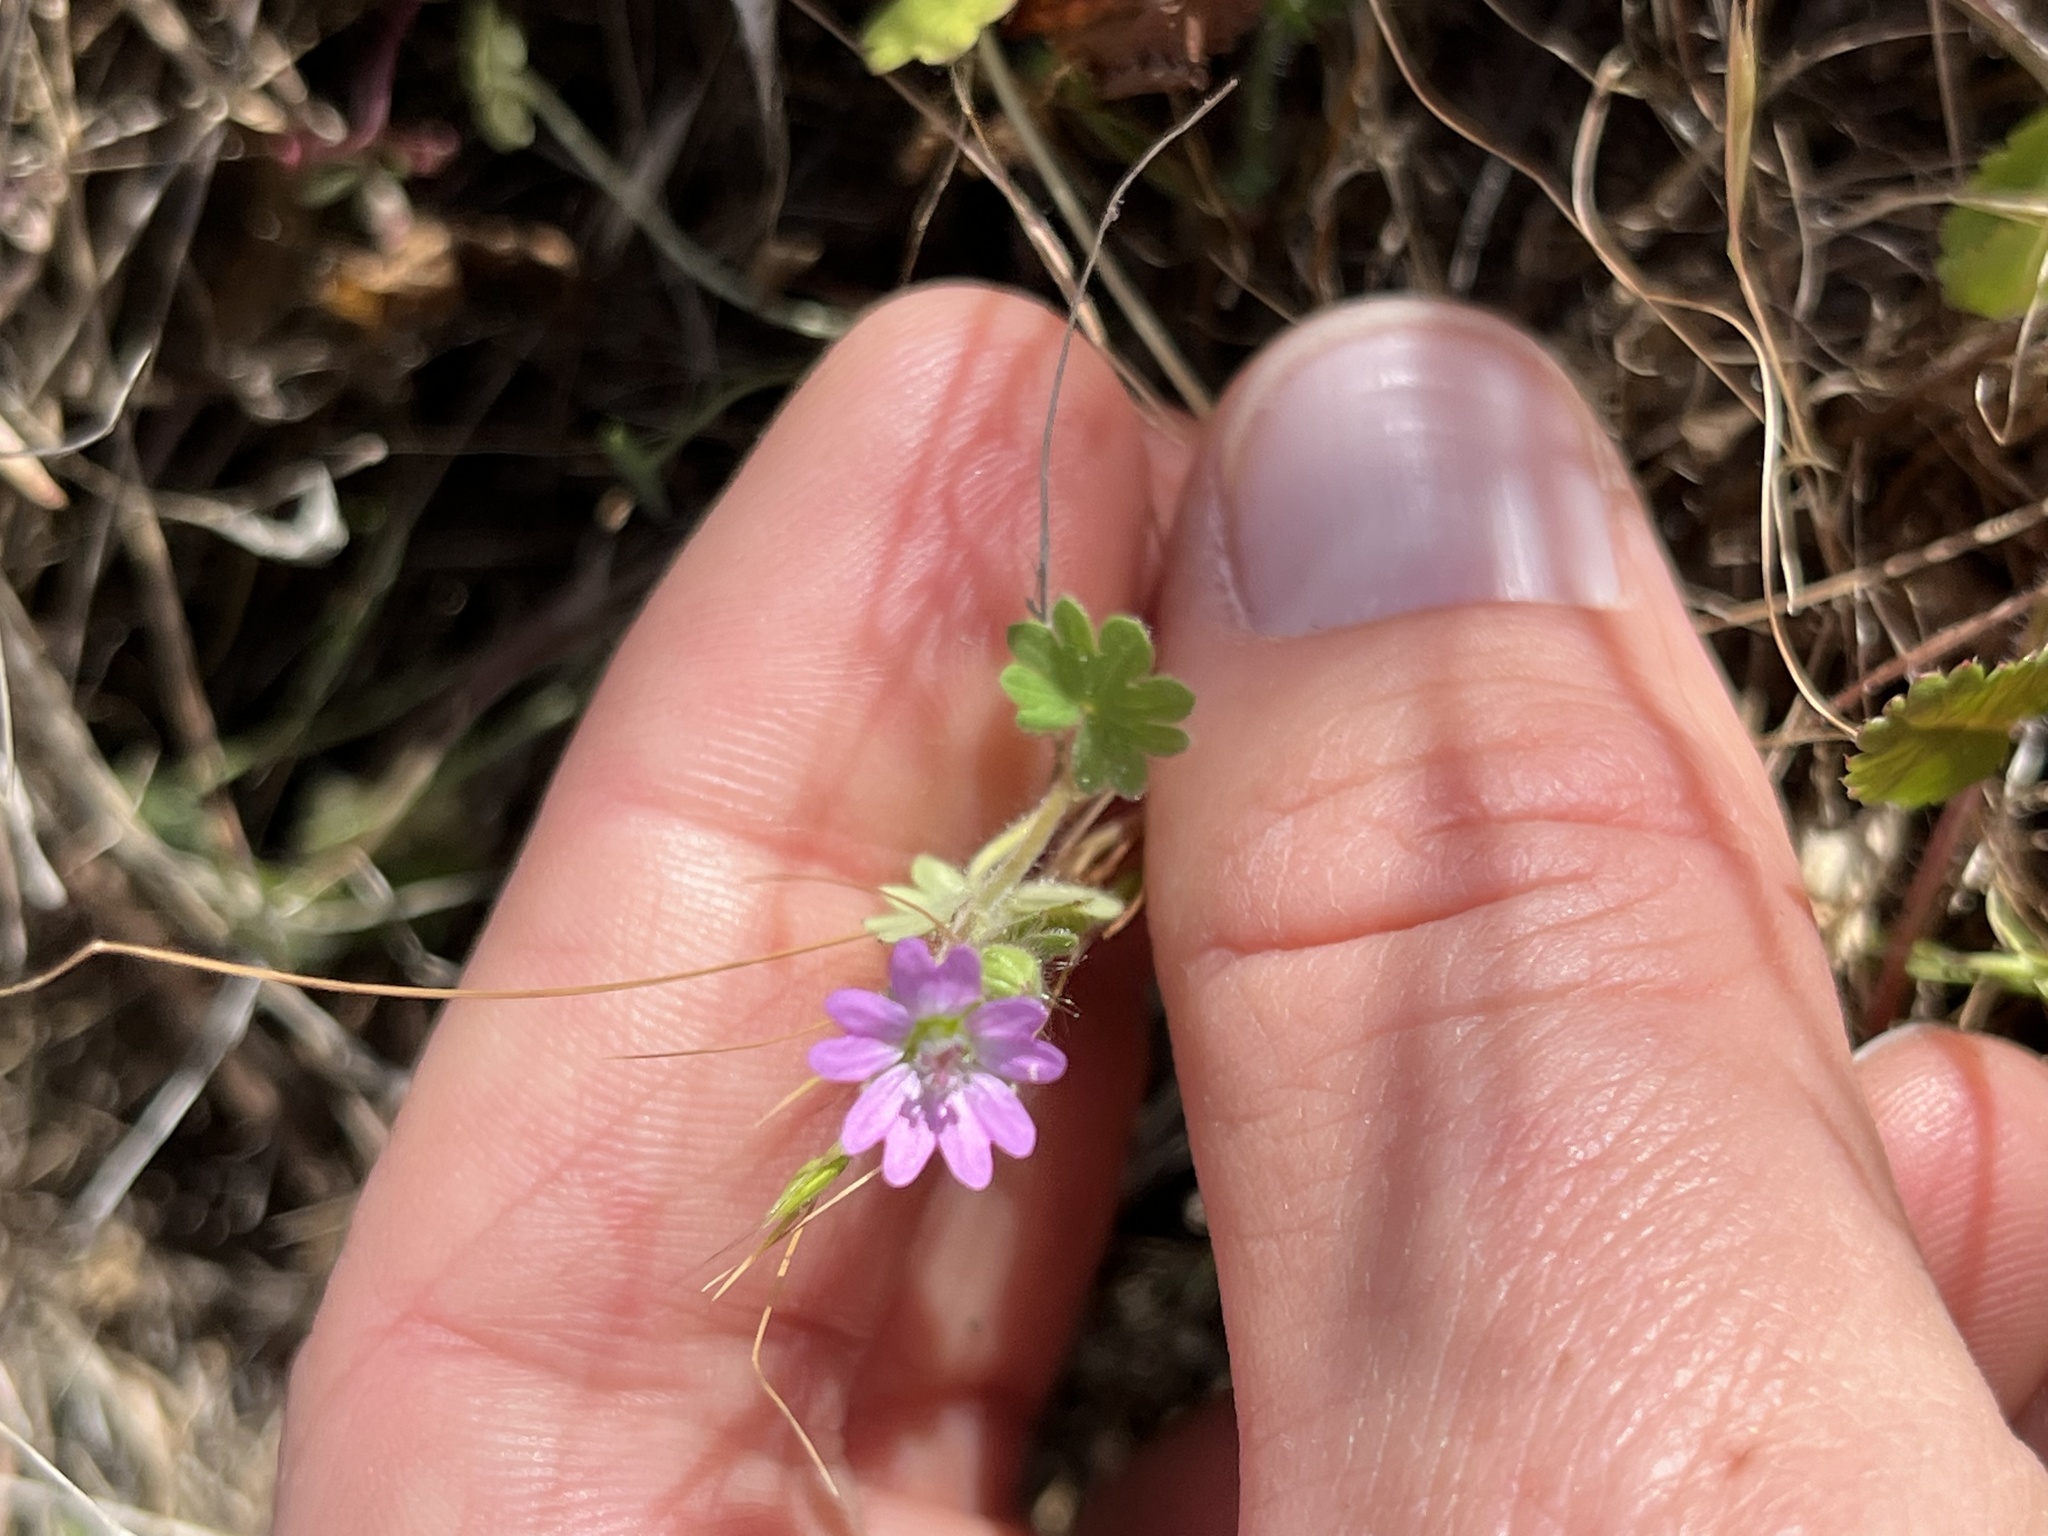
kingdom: Plantae
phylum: Tracheophyta
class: Magnoliopsida
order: Geraniales
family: Geraniaceae
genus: Geranium
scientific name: Geranium molle
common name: Dove's-foot crane's-bill
